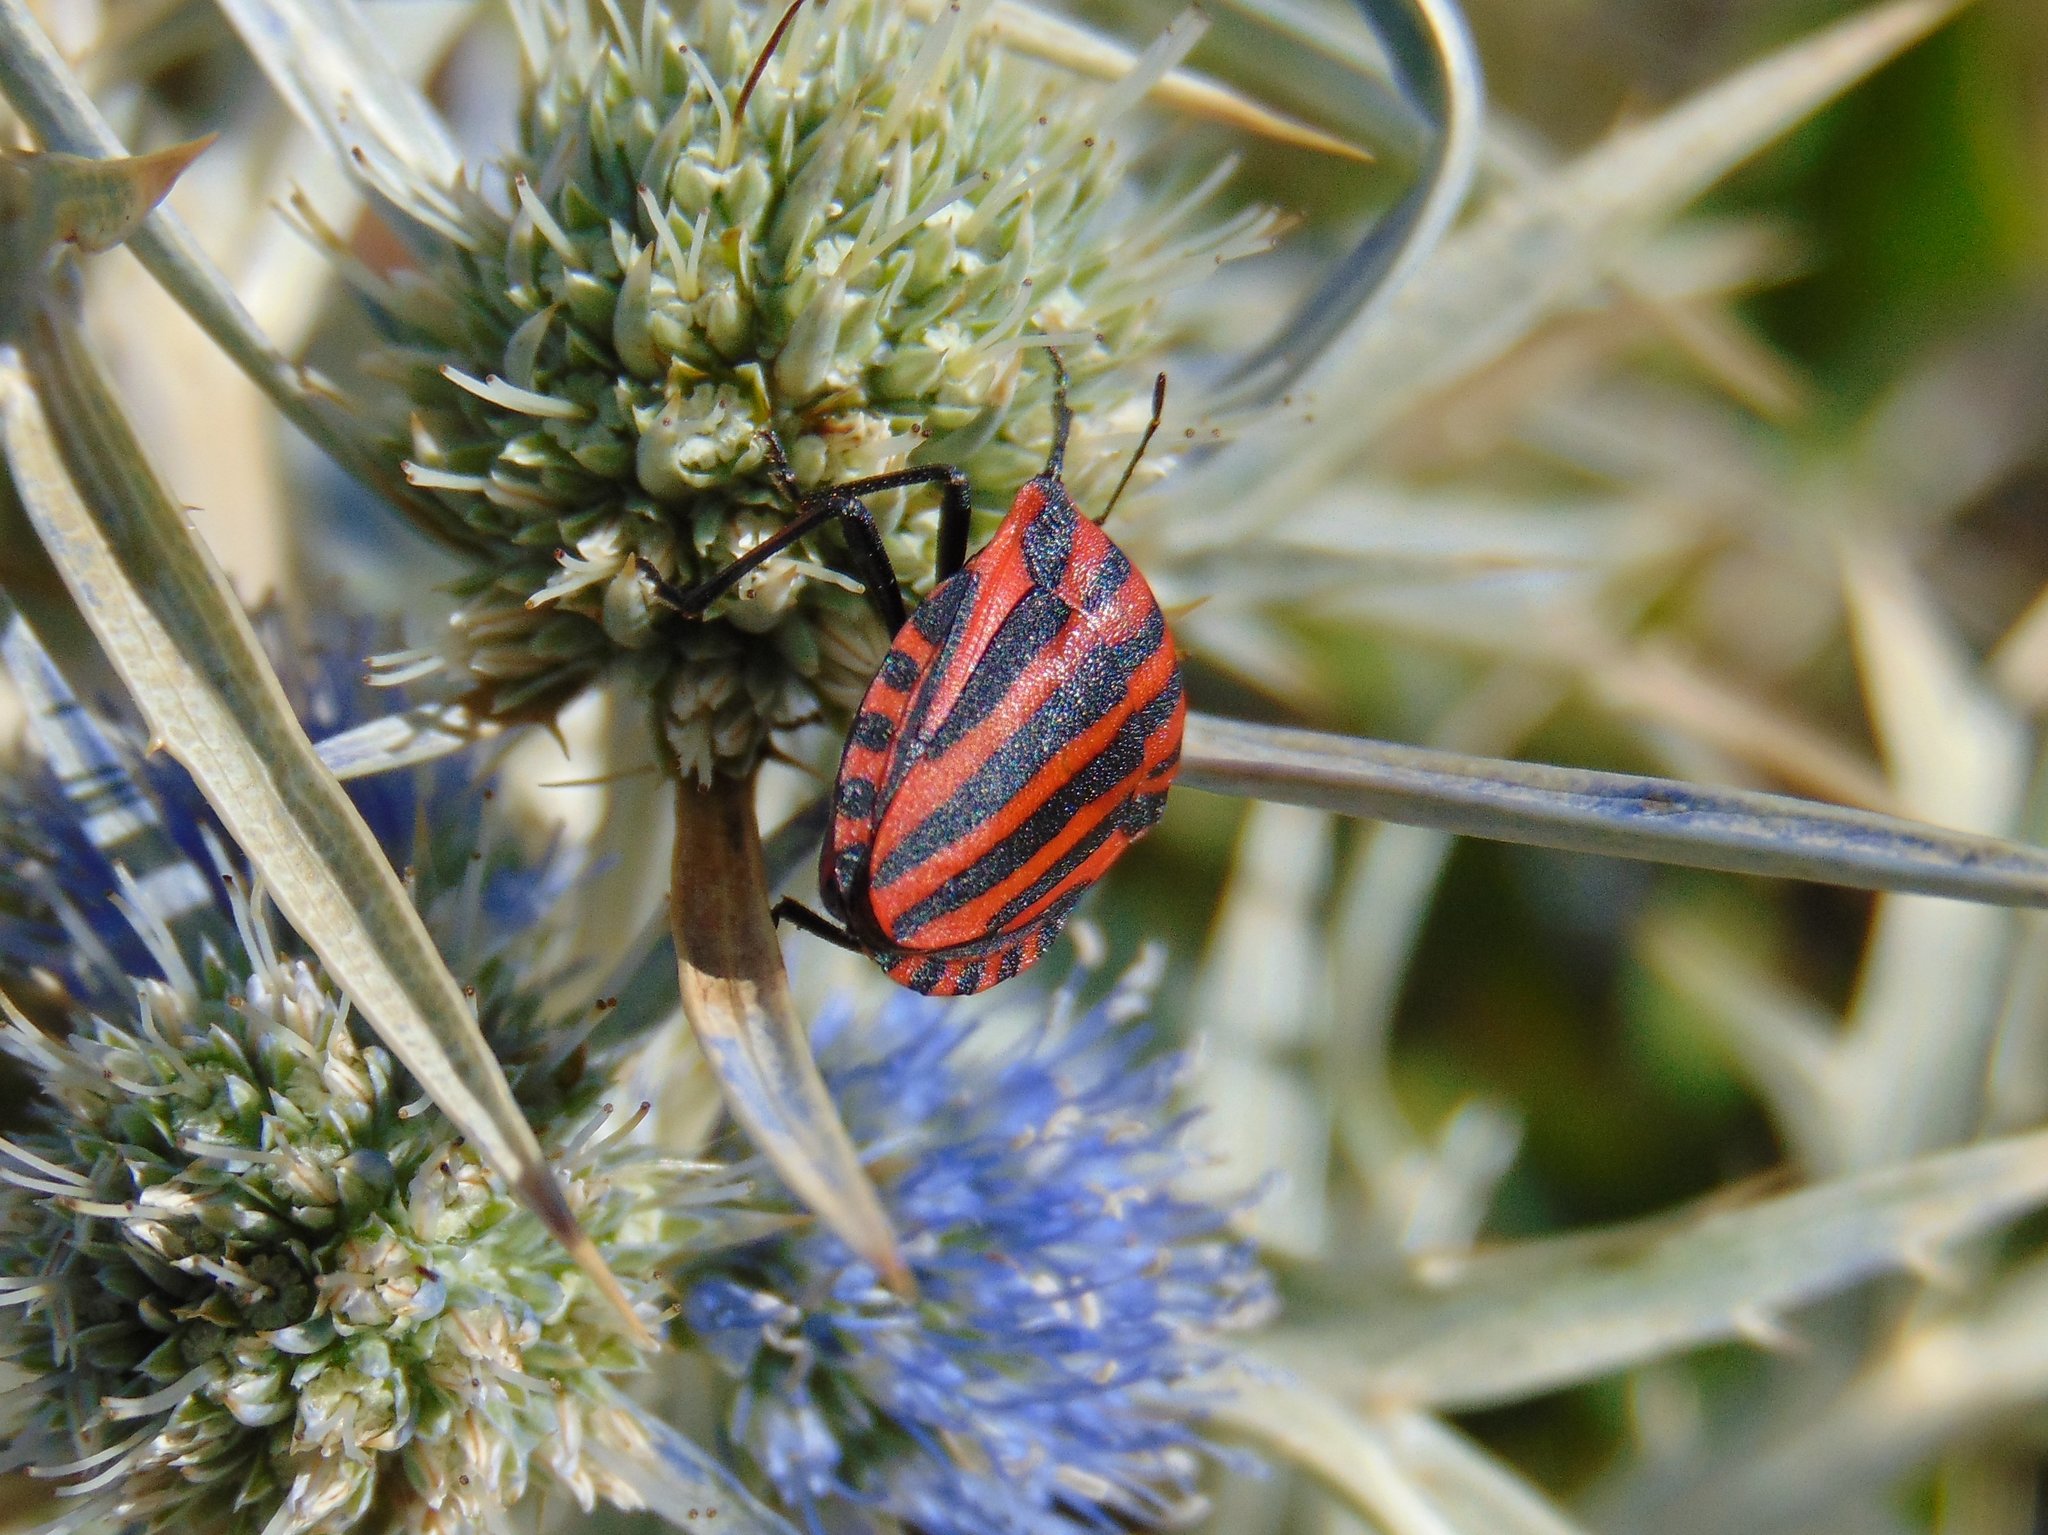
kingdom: Animalia
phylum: Arthropoda
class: Insecta
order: Hemiptera
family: Pentatomidae
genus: Graphosoma
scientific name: Graphosoma italicum
